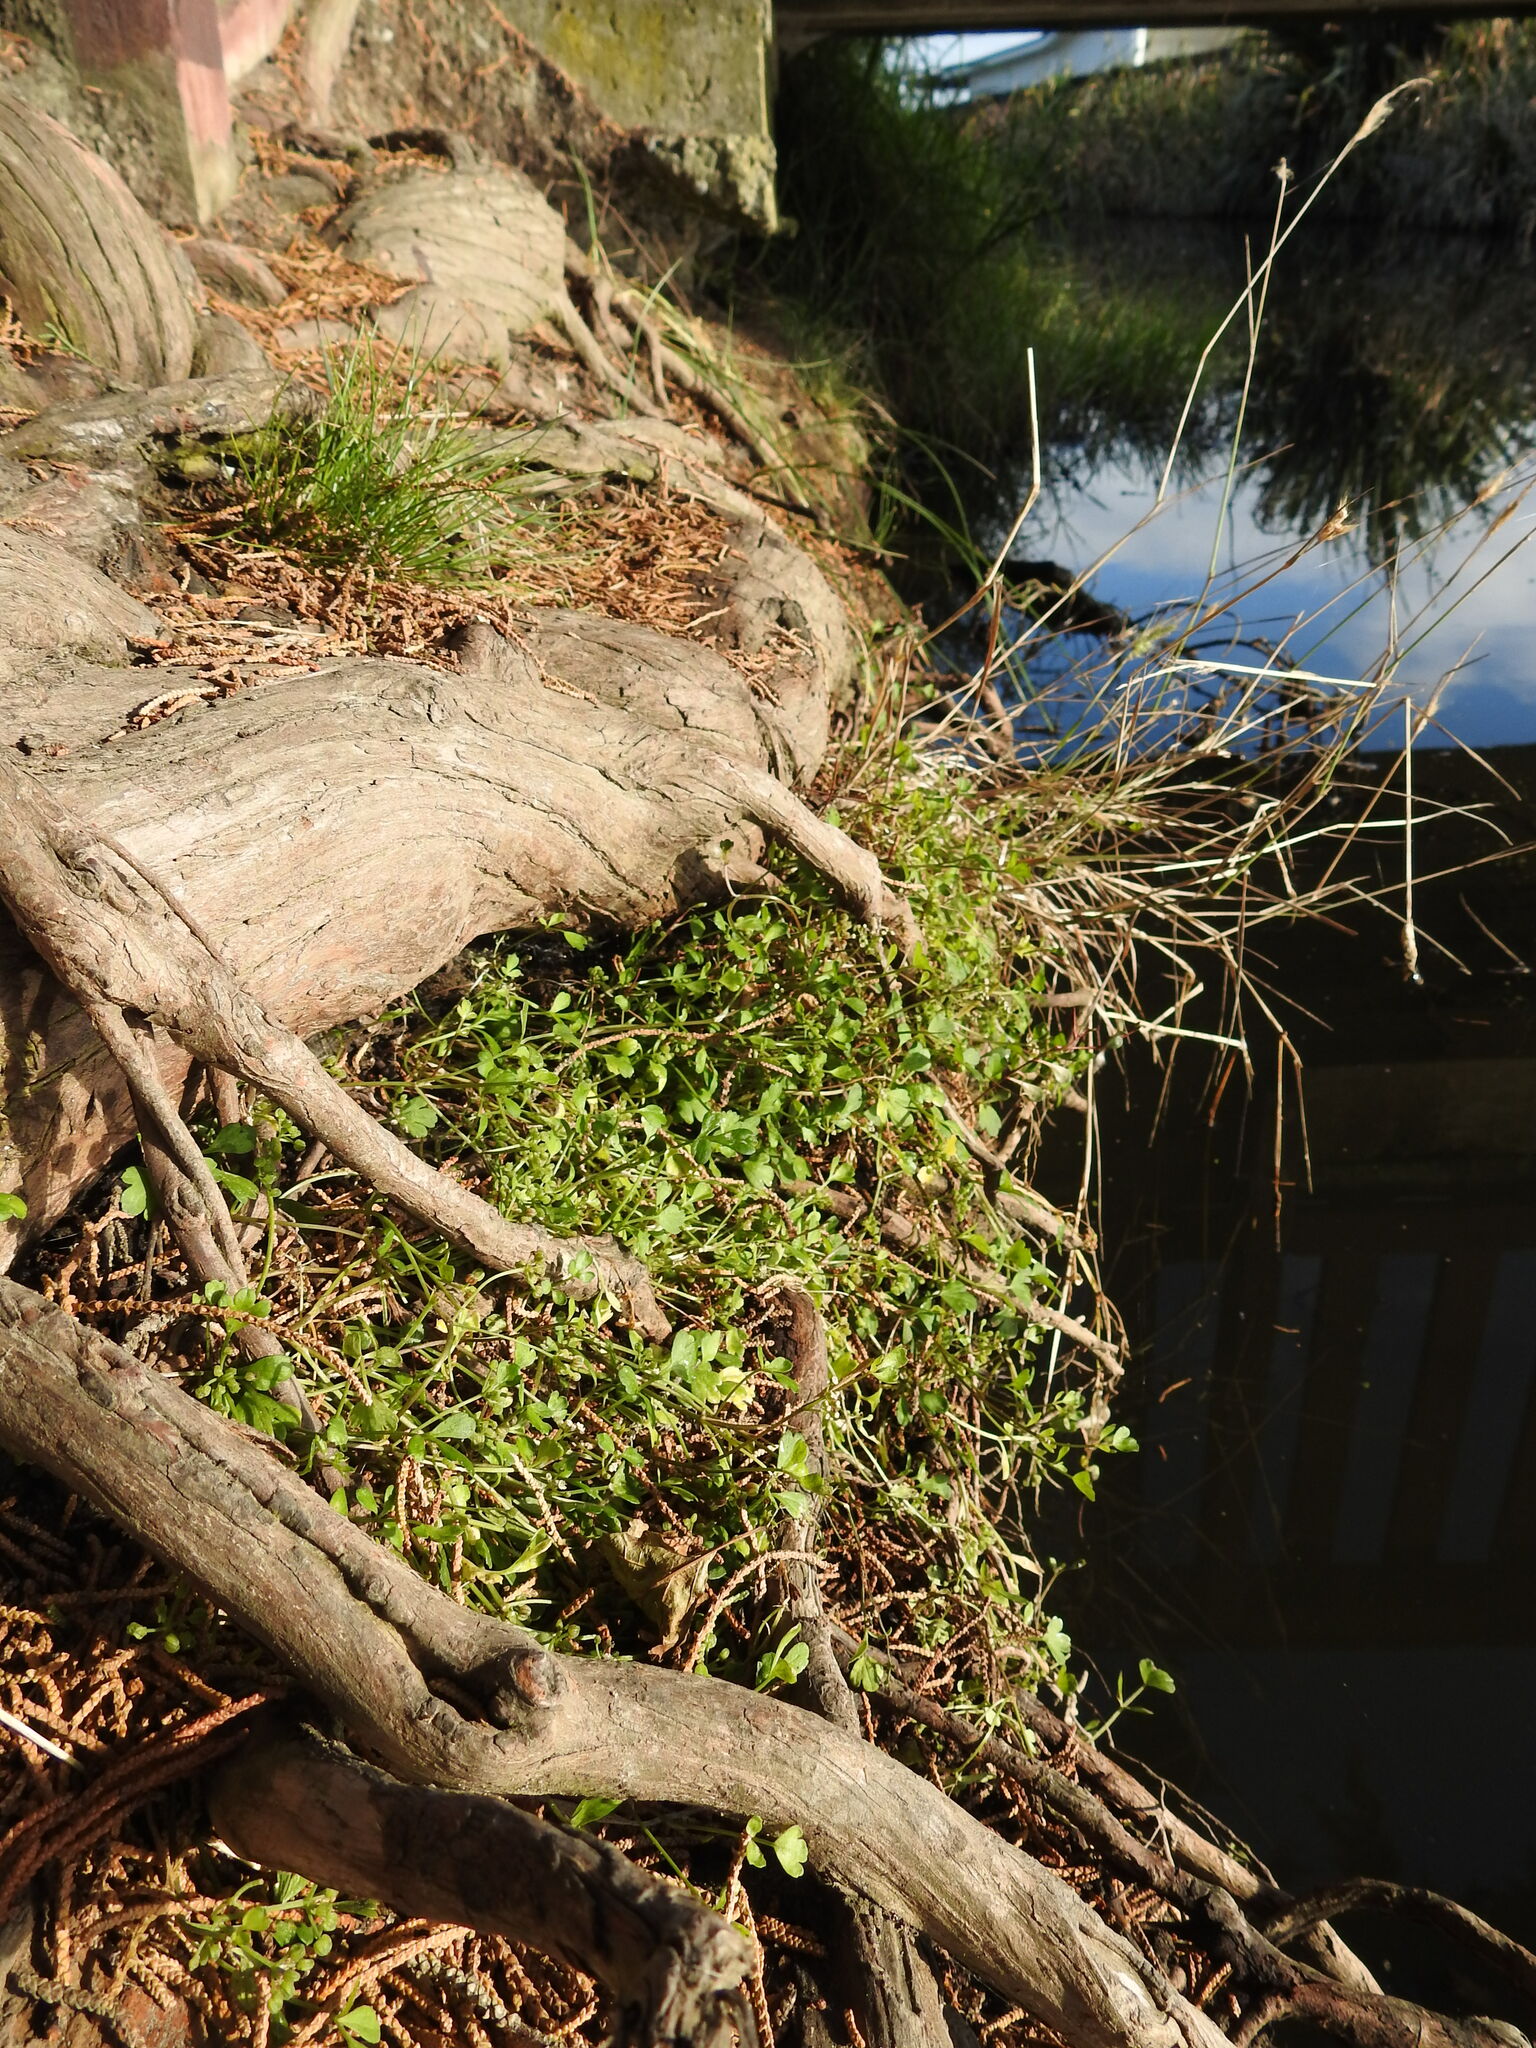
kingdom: Plantae
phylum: Tracheophyta
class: Magnoliopsida
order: Apiales
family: Apiaceae
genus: Apium
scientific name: Apium prostratum
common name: Prostrate marshwort
